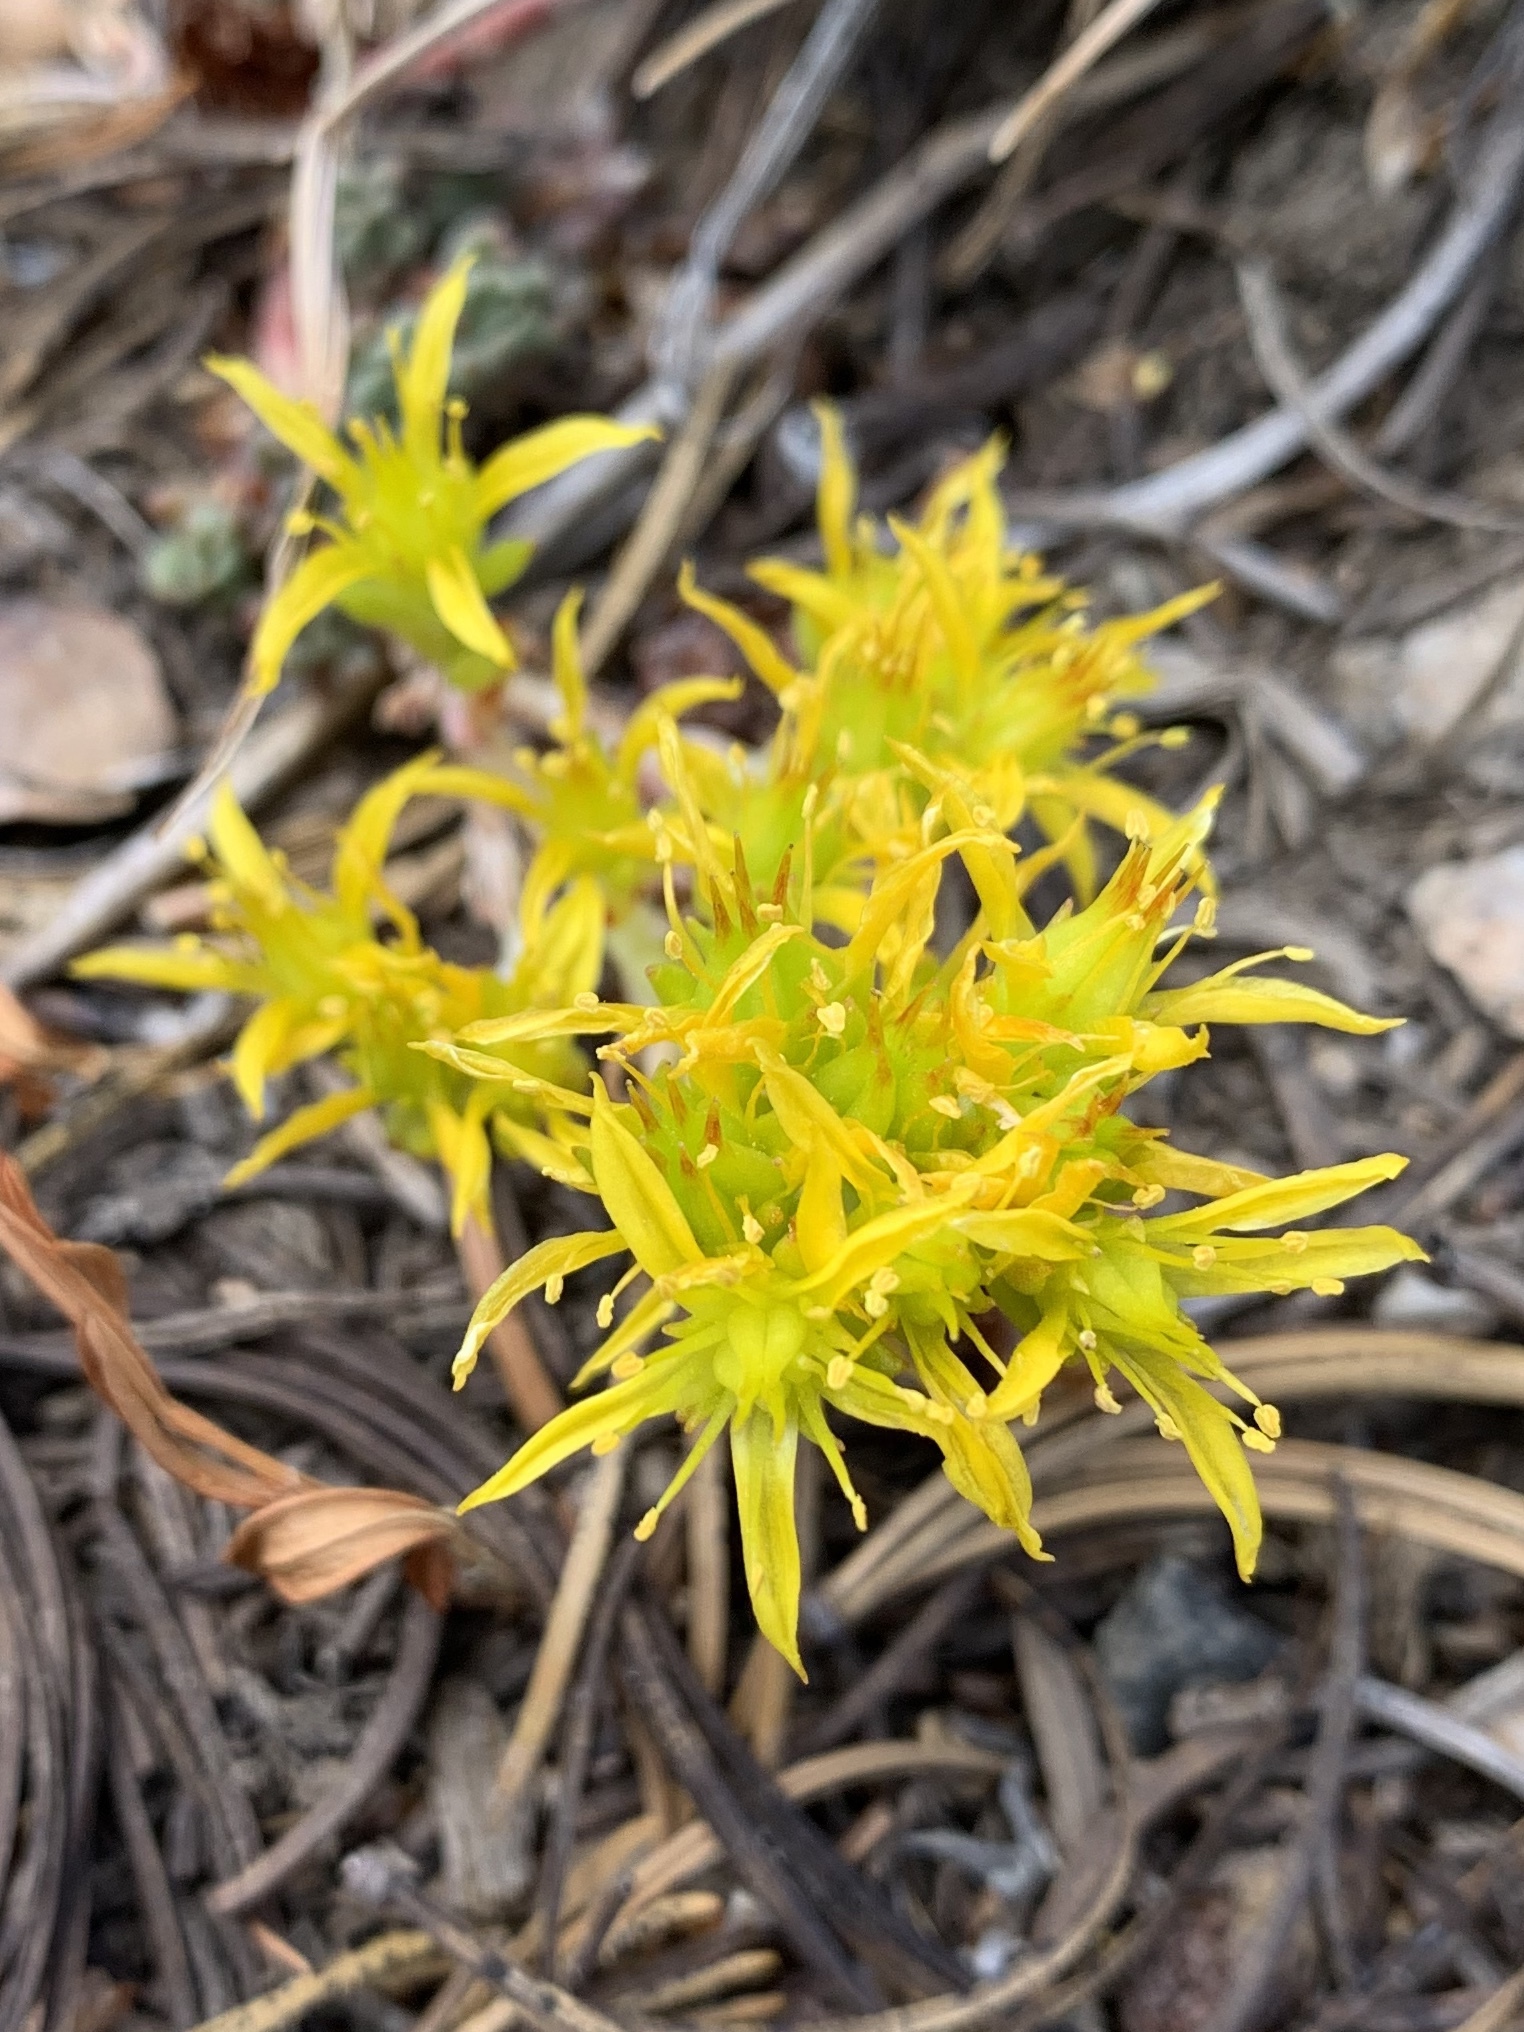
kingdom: Plantae
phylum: Tracheophyta
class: Magnoliopsida
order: Saxifragales
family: Crassulaceae
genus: Sedum
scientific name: Sedum lanceolatum
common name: Common stonecrop
